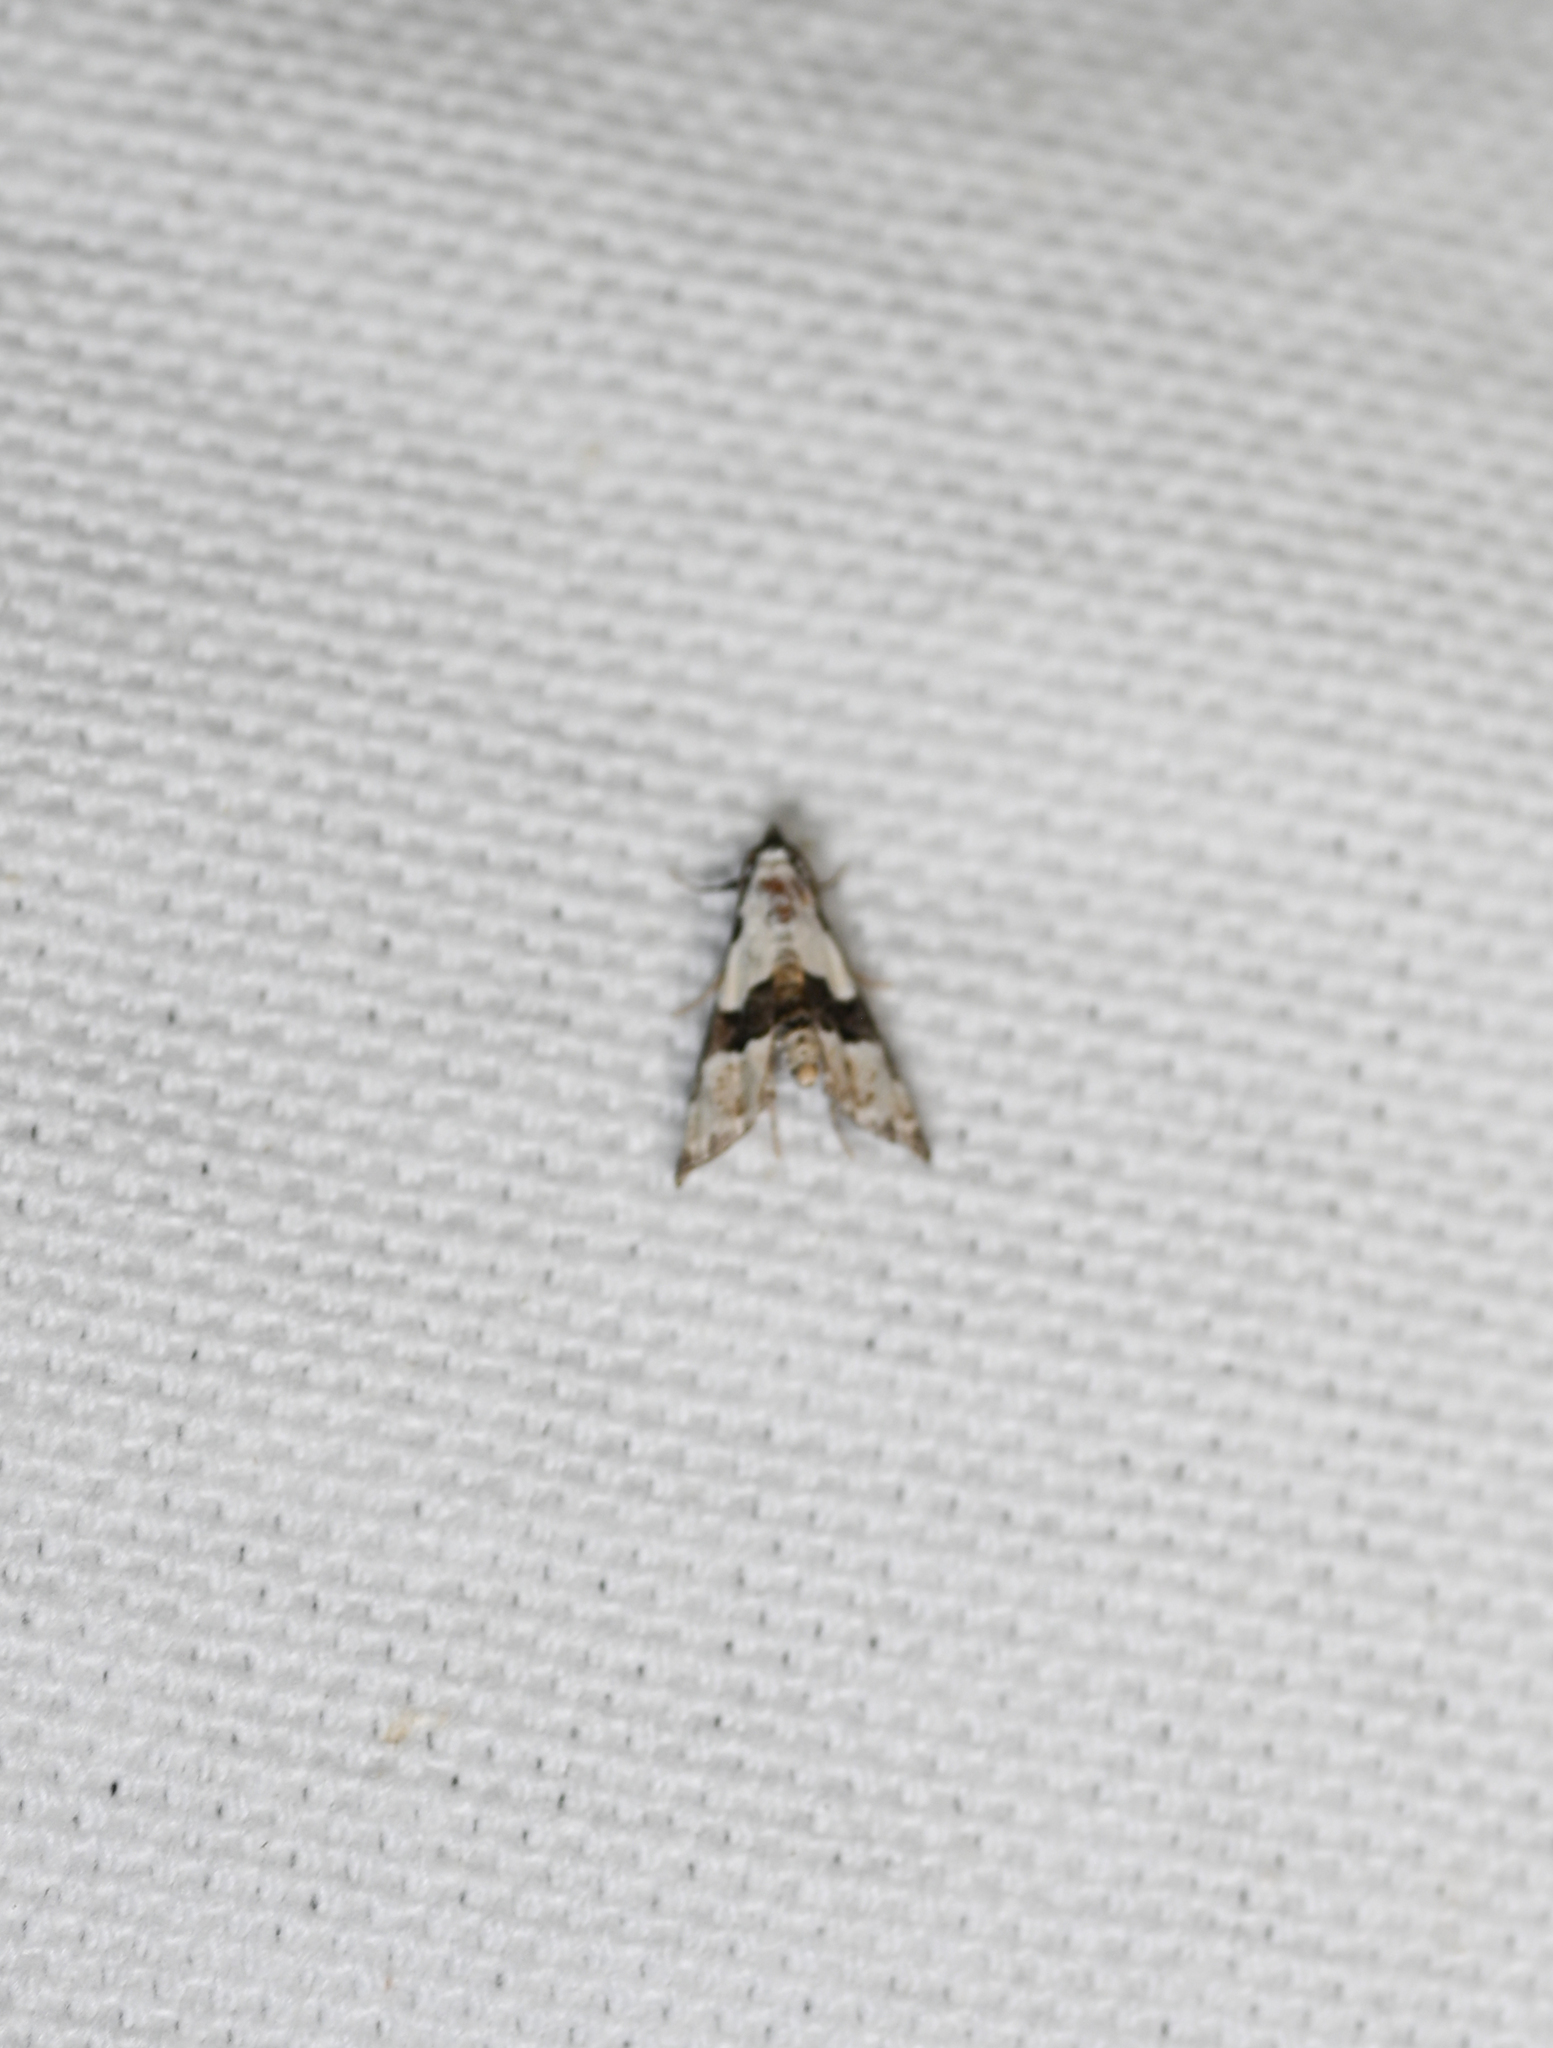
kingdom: Animalia
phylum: Arthropoda
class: Insecta
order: Lepidoptera
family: Noctuidae
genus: Nigetia
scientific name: Nigetia formosalis
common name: Thin-winged owlet
